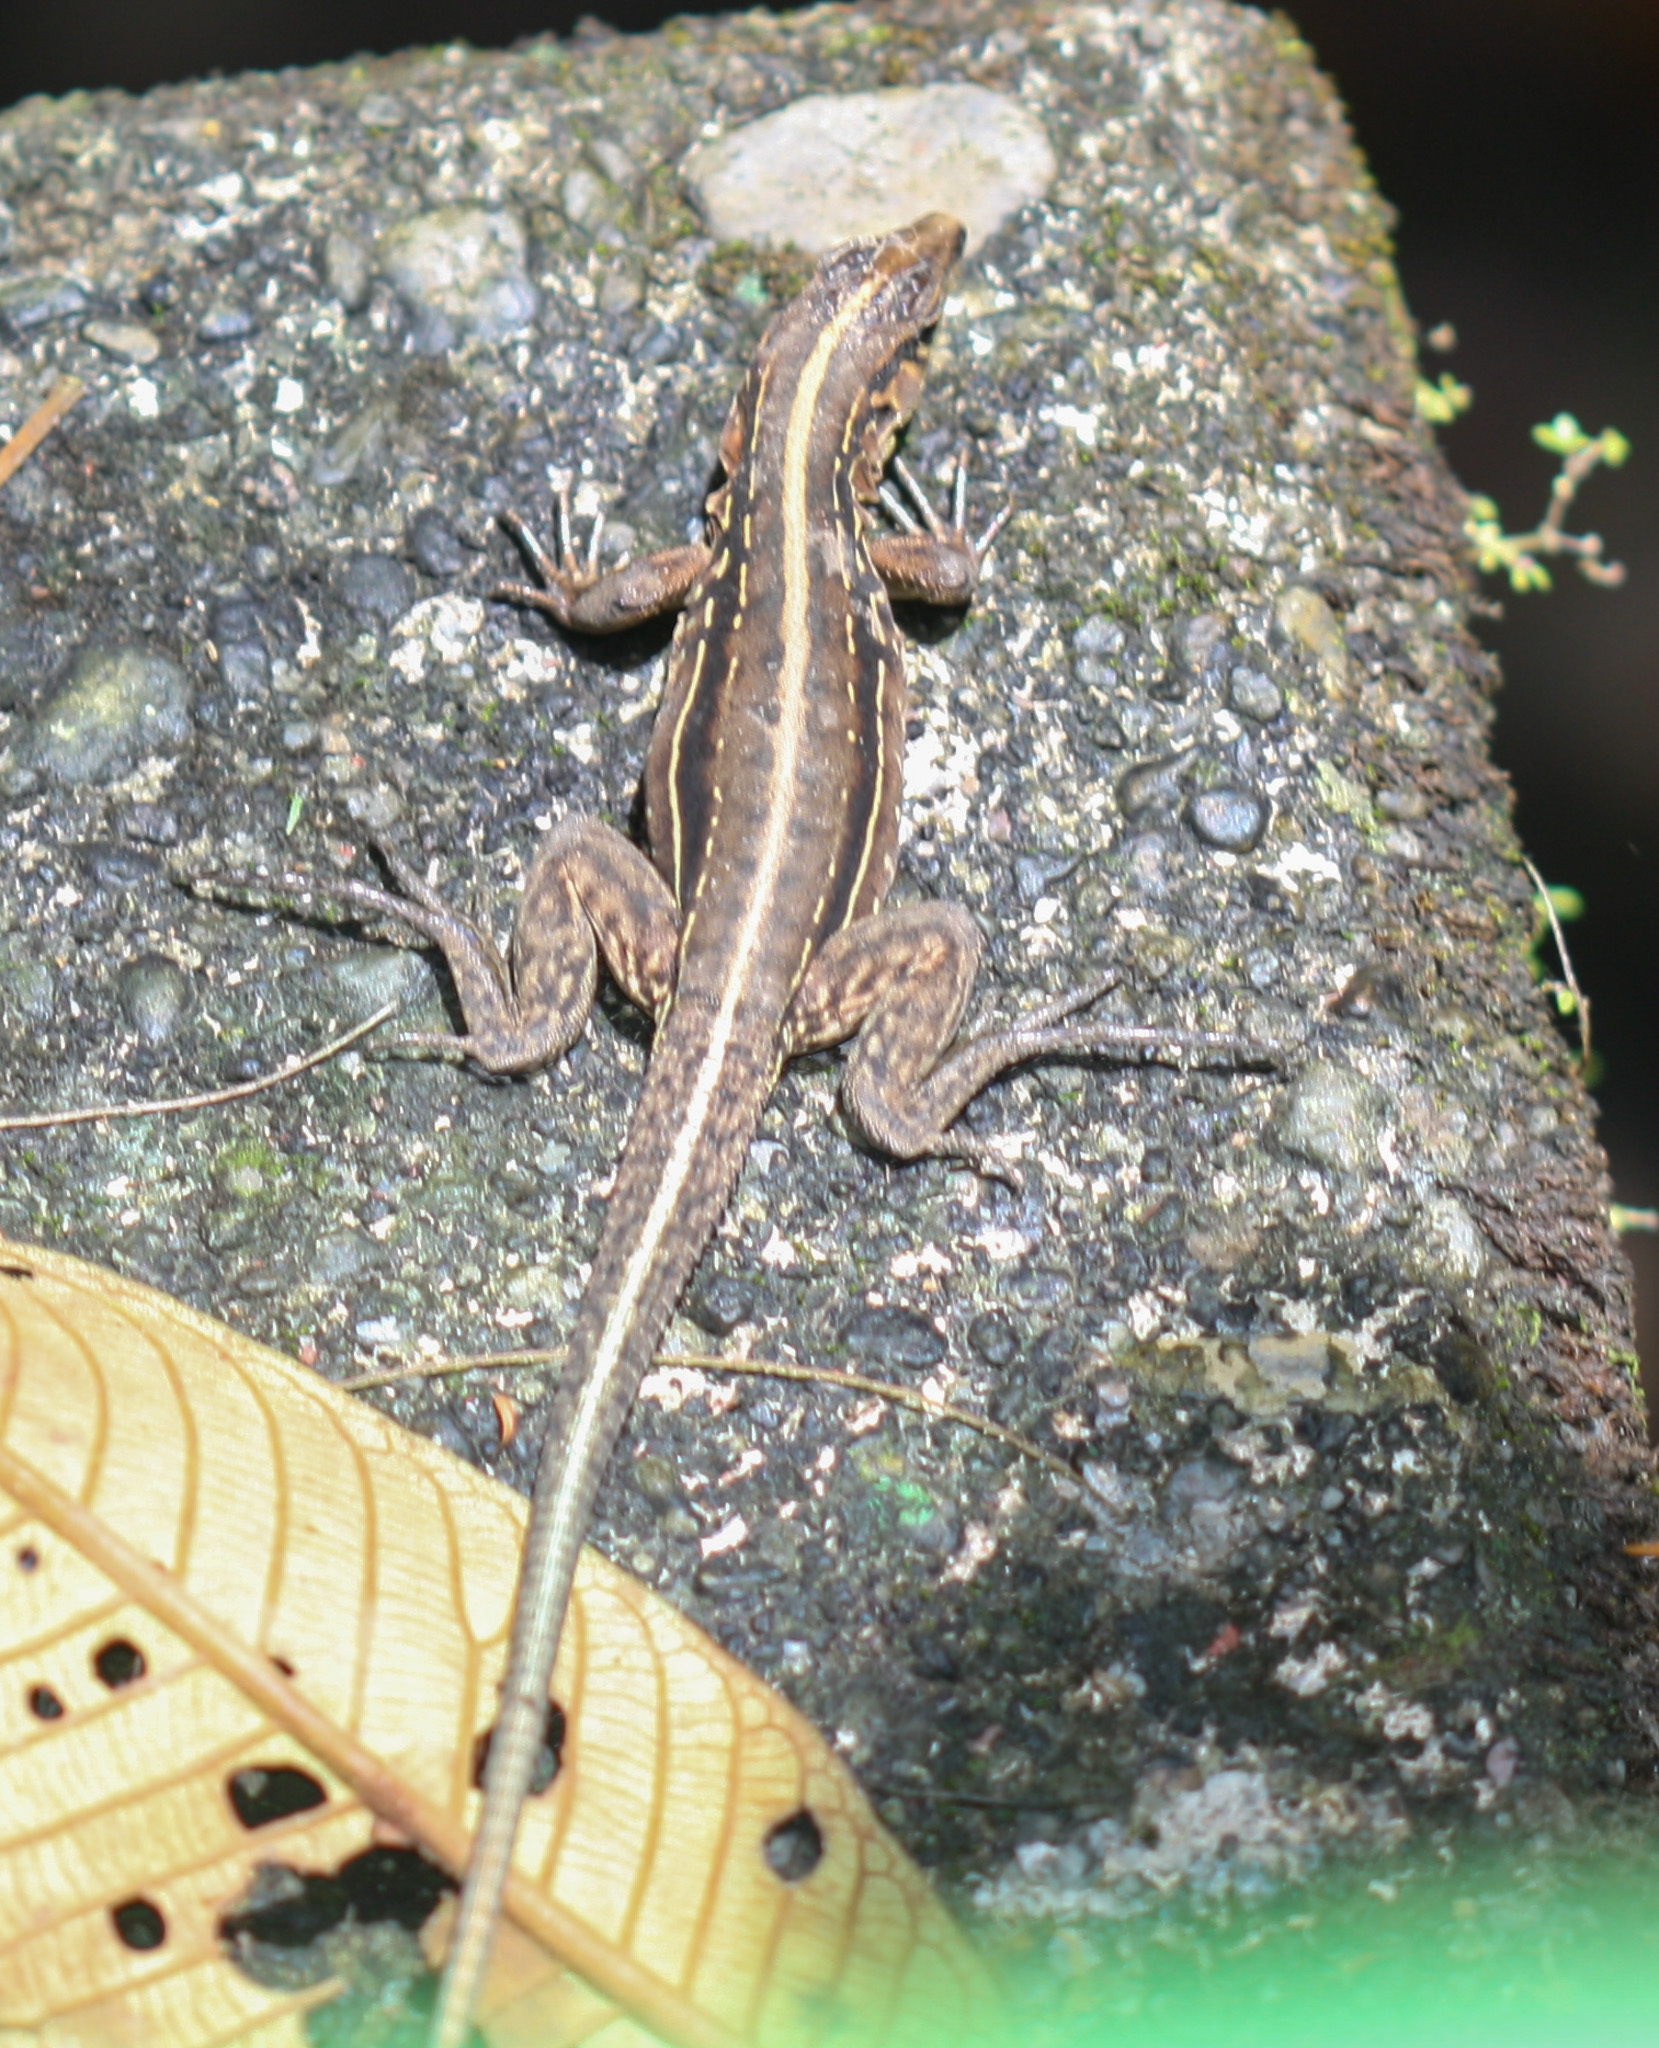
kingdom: Animalia
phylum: Chordata
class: Squamata
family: Teiidae
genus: Holcosus
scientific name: Holcosus festivus
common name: Middle american ameiva
